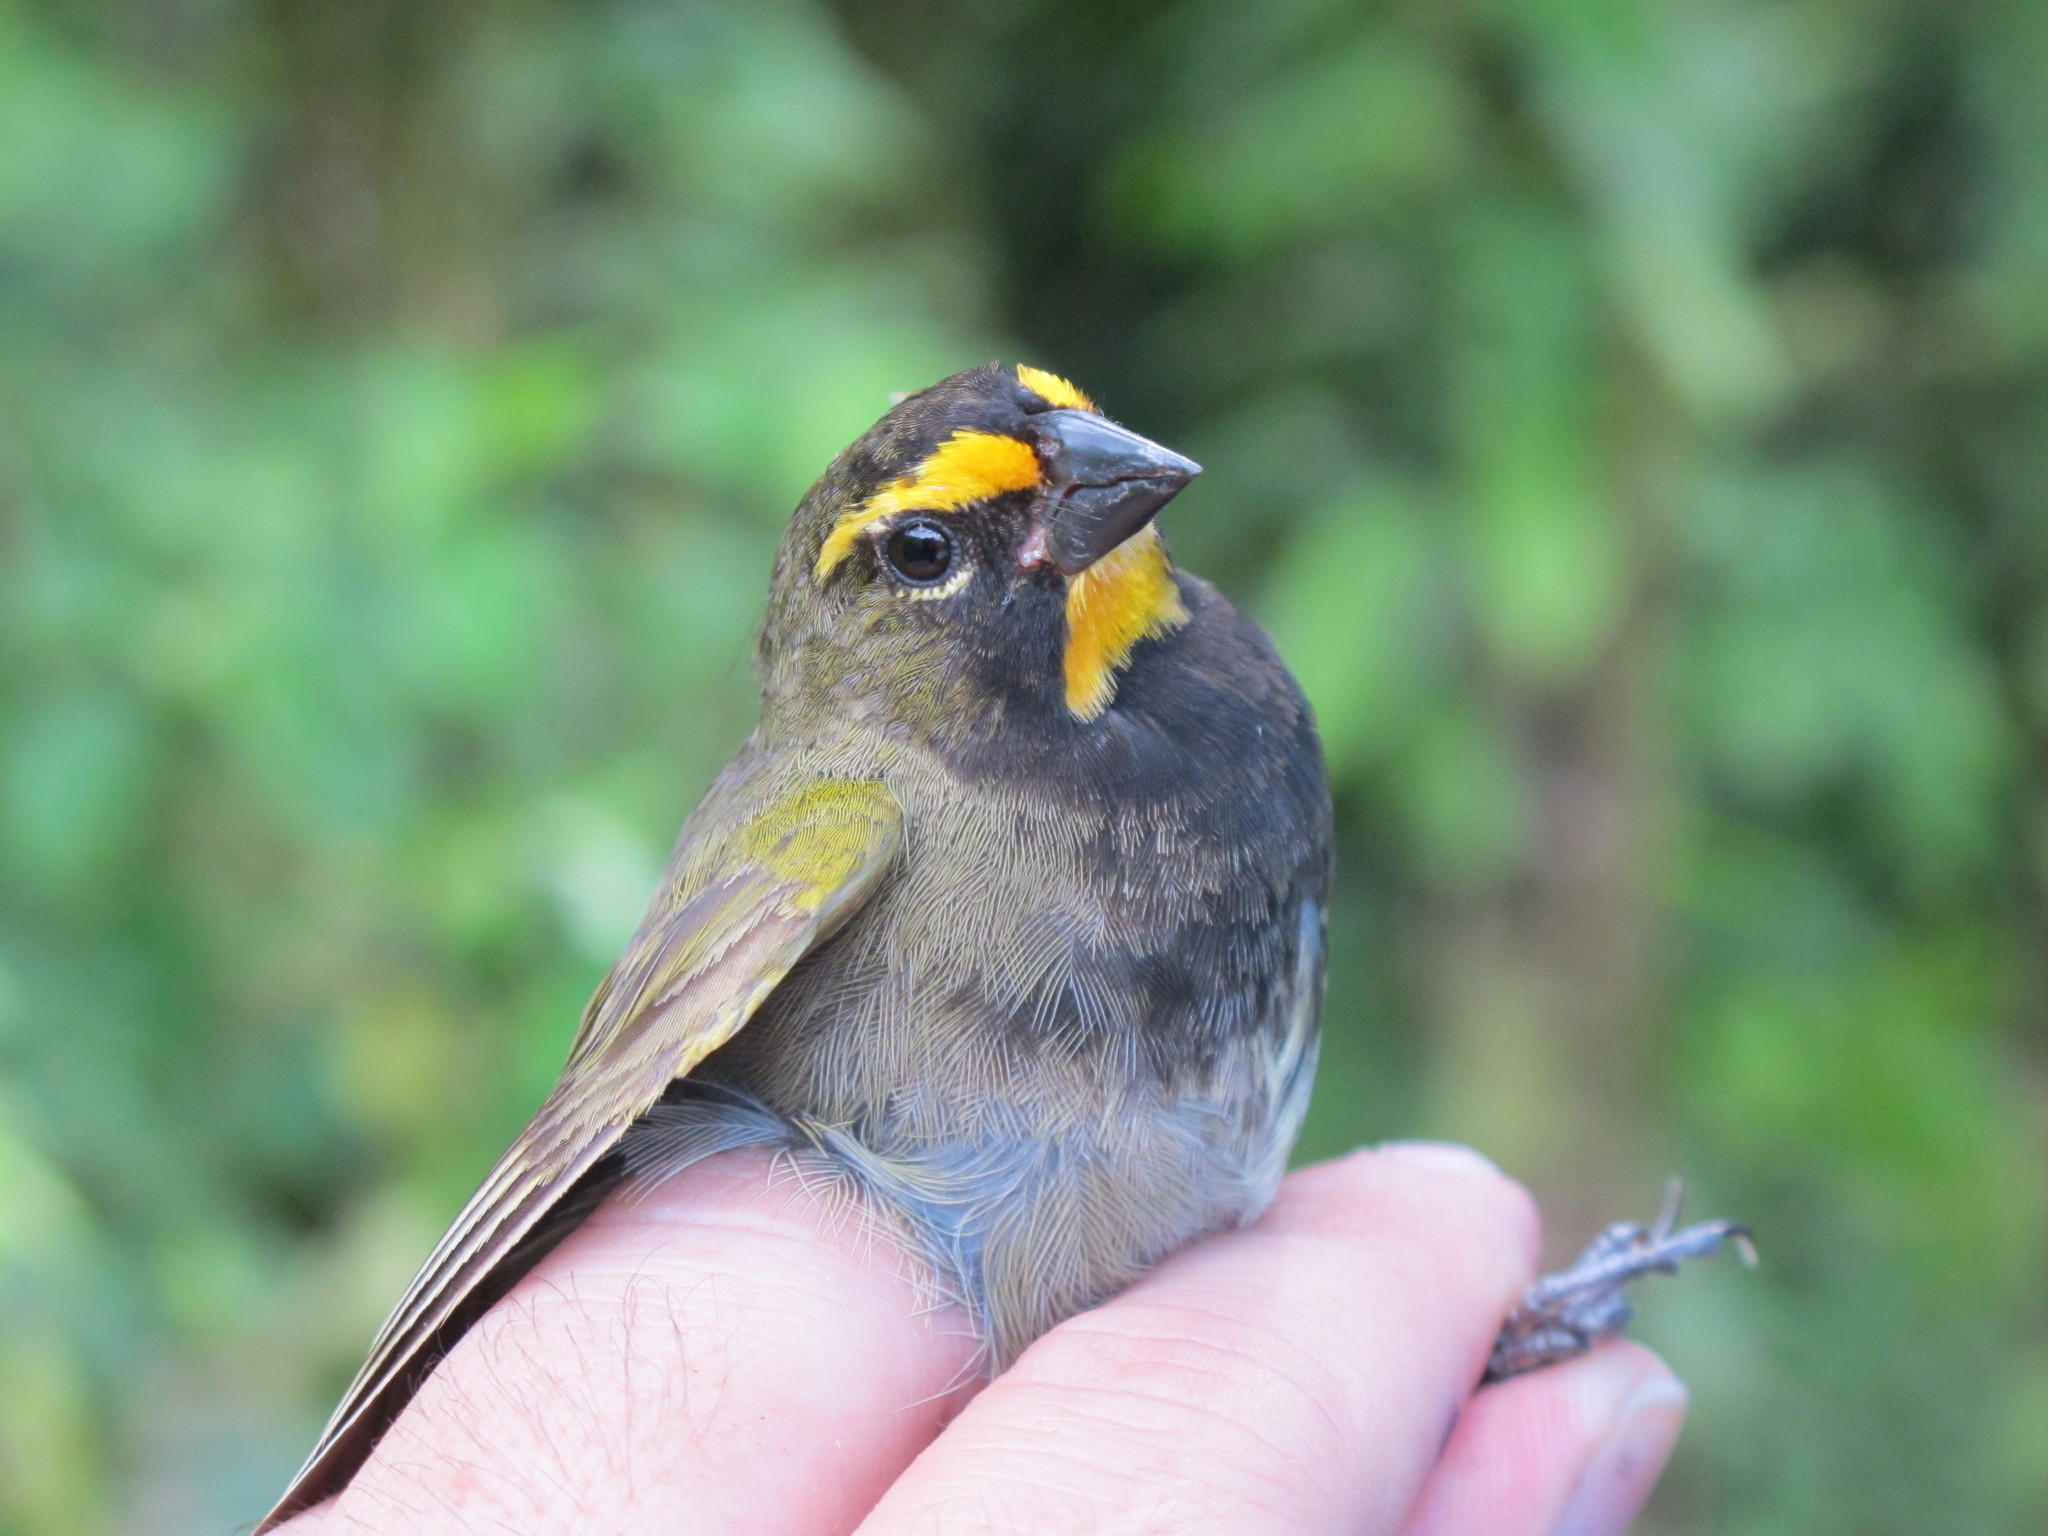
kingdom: Animalia
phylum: Chordata
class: Aves
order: Passeriformes
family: Thraupidae
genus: Tiaris
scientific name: Tiaris olivaceus
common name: Yellow-faced grassquit
